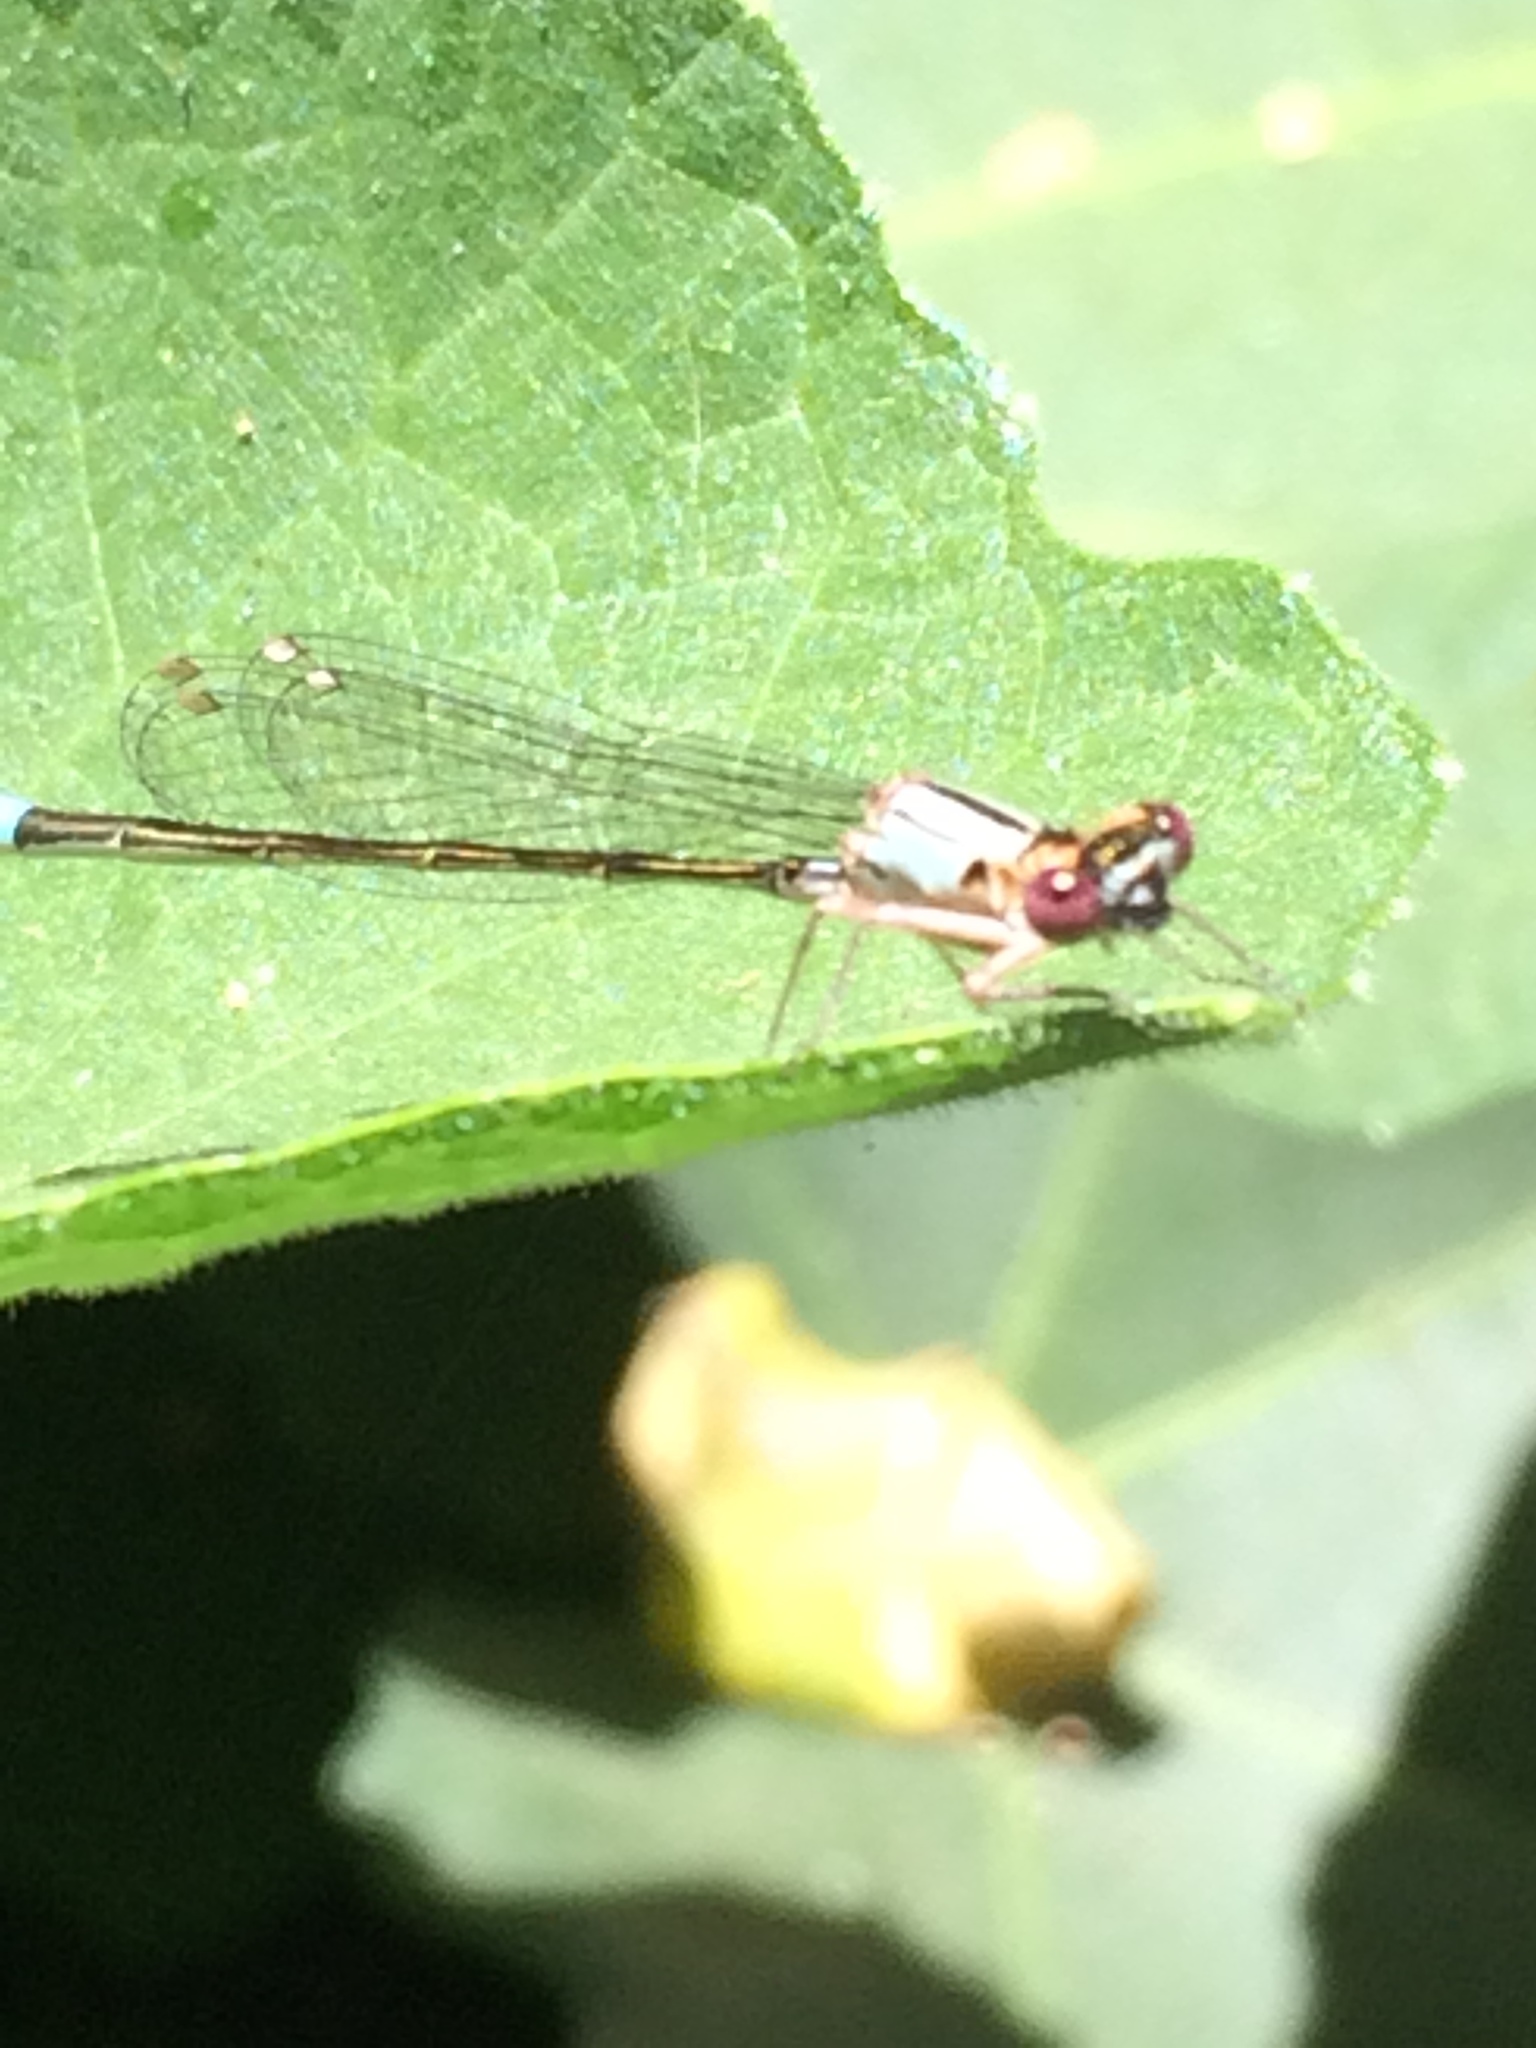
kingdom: Animalia
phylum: Arthropoda
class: Insecta
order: Odonata
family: Coenagrionidae
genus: Ischnura
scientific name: Ischnura cervula
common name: Pacific forktail
